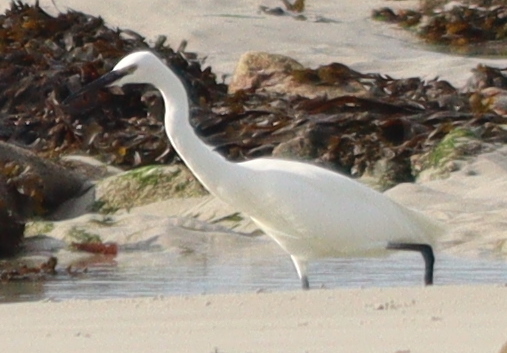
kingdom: Animalia
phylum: Chordata
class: Aves
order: Pelecaniformes
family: Ardeidae
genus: Egretta
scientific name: Egretta garzetta
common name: Little egret
